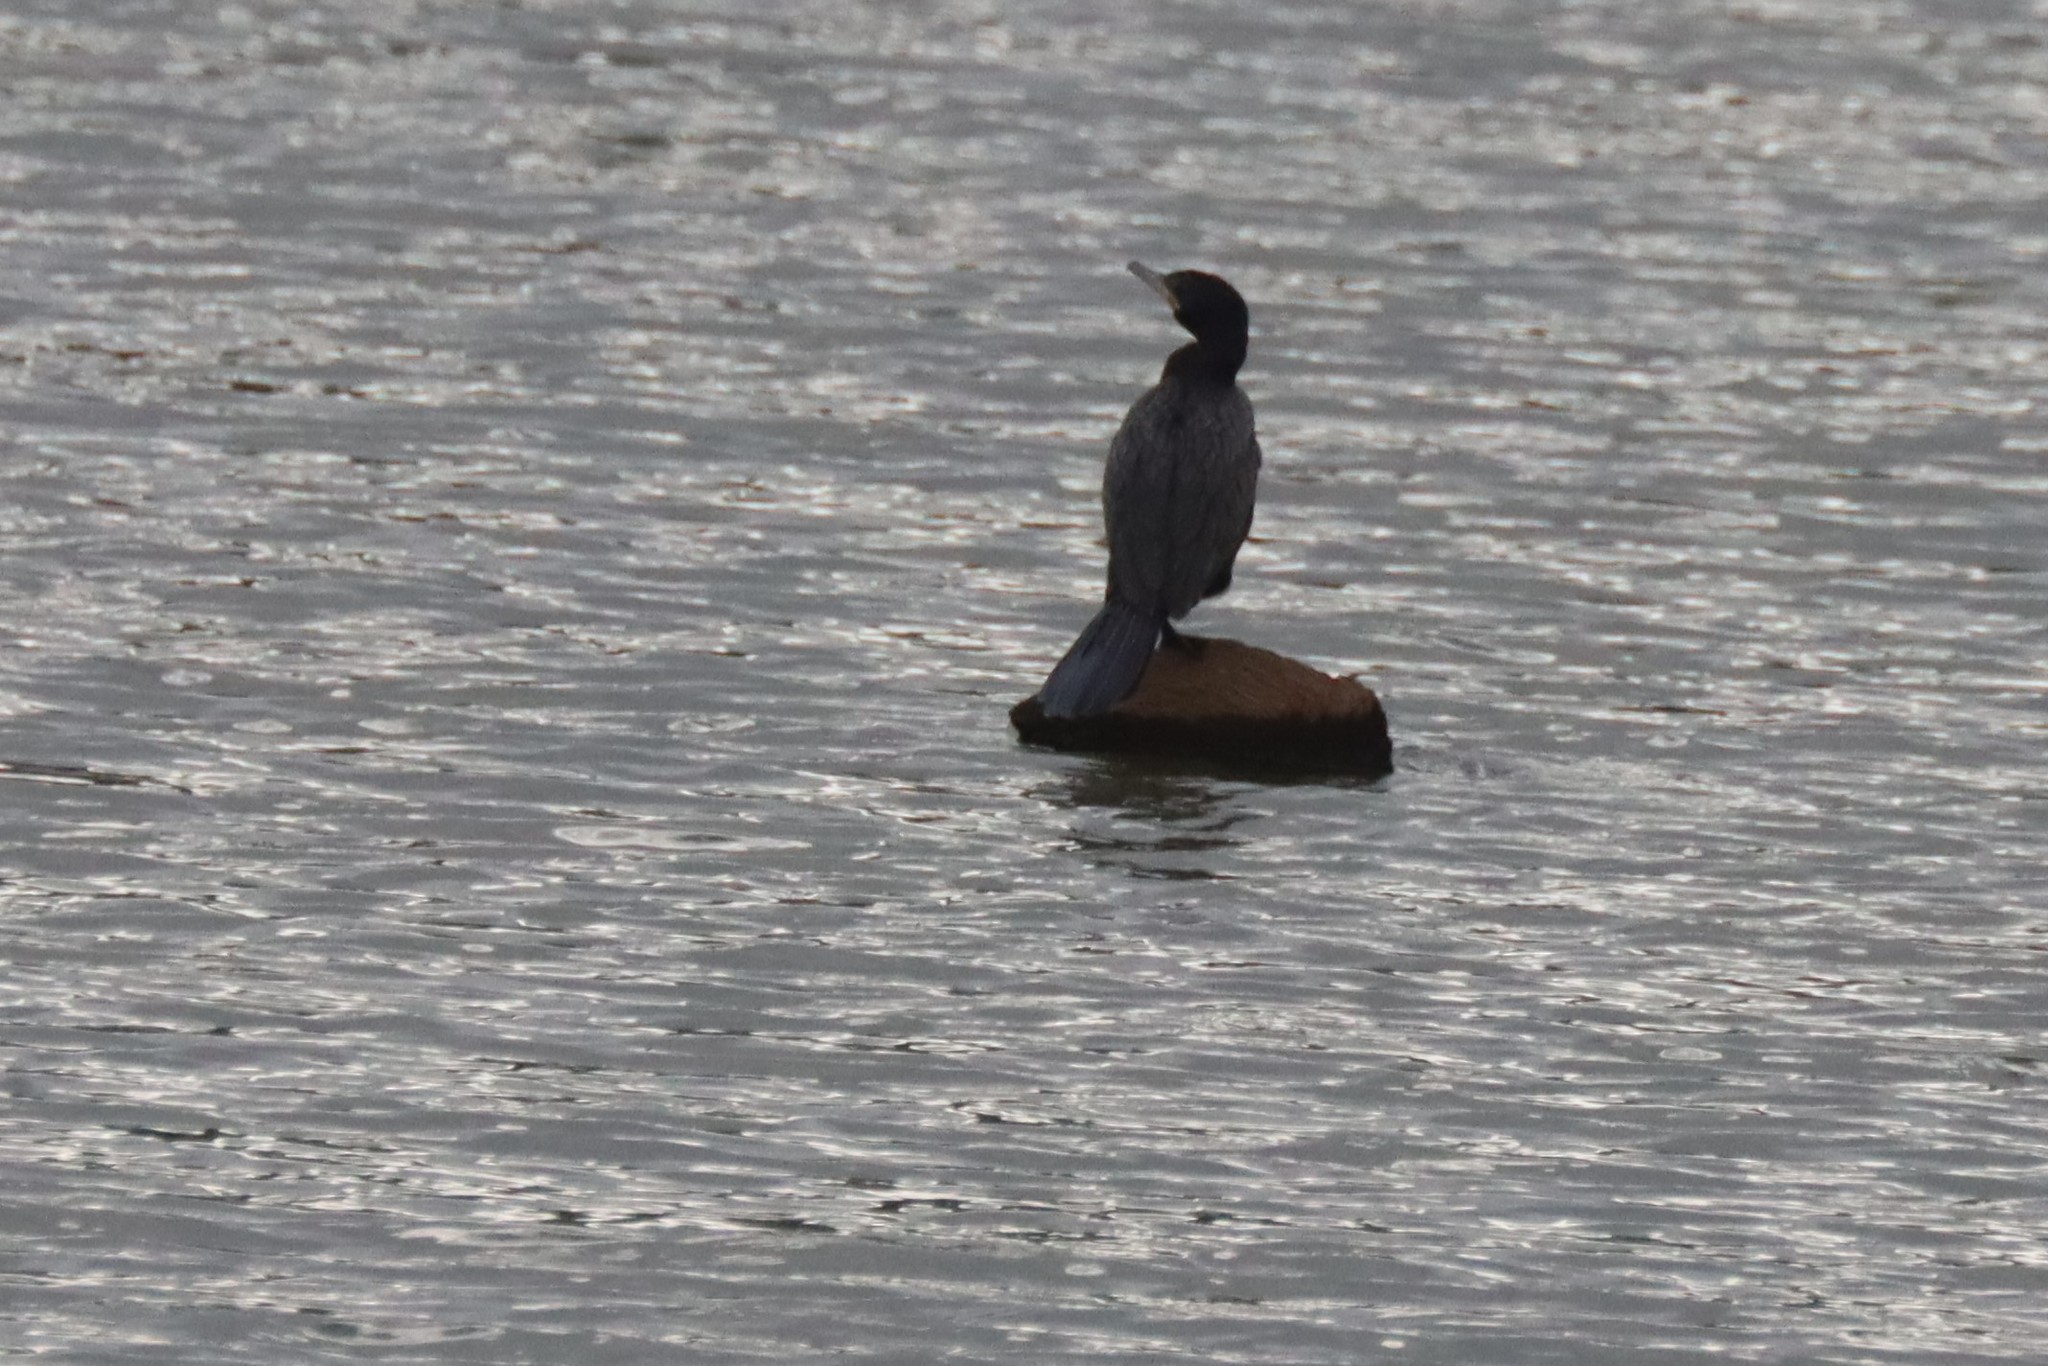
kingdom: Animalia
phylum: Chordata
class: Aves
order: Suliformes
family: Phalacrocoracidae
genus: Phalacrocorax
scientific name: Phalacrocorax brasilianus
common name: Neotropic cormorant
